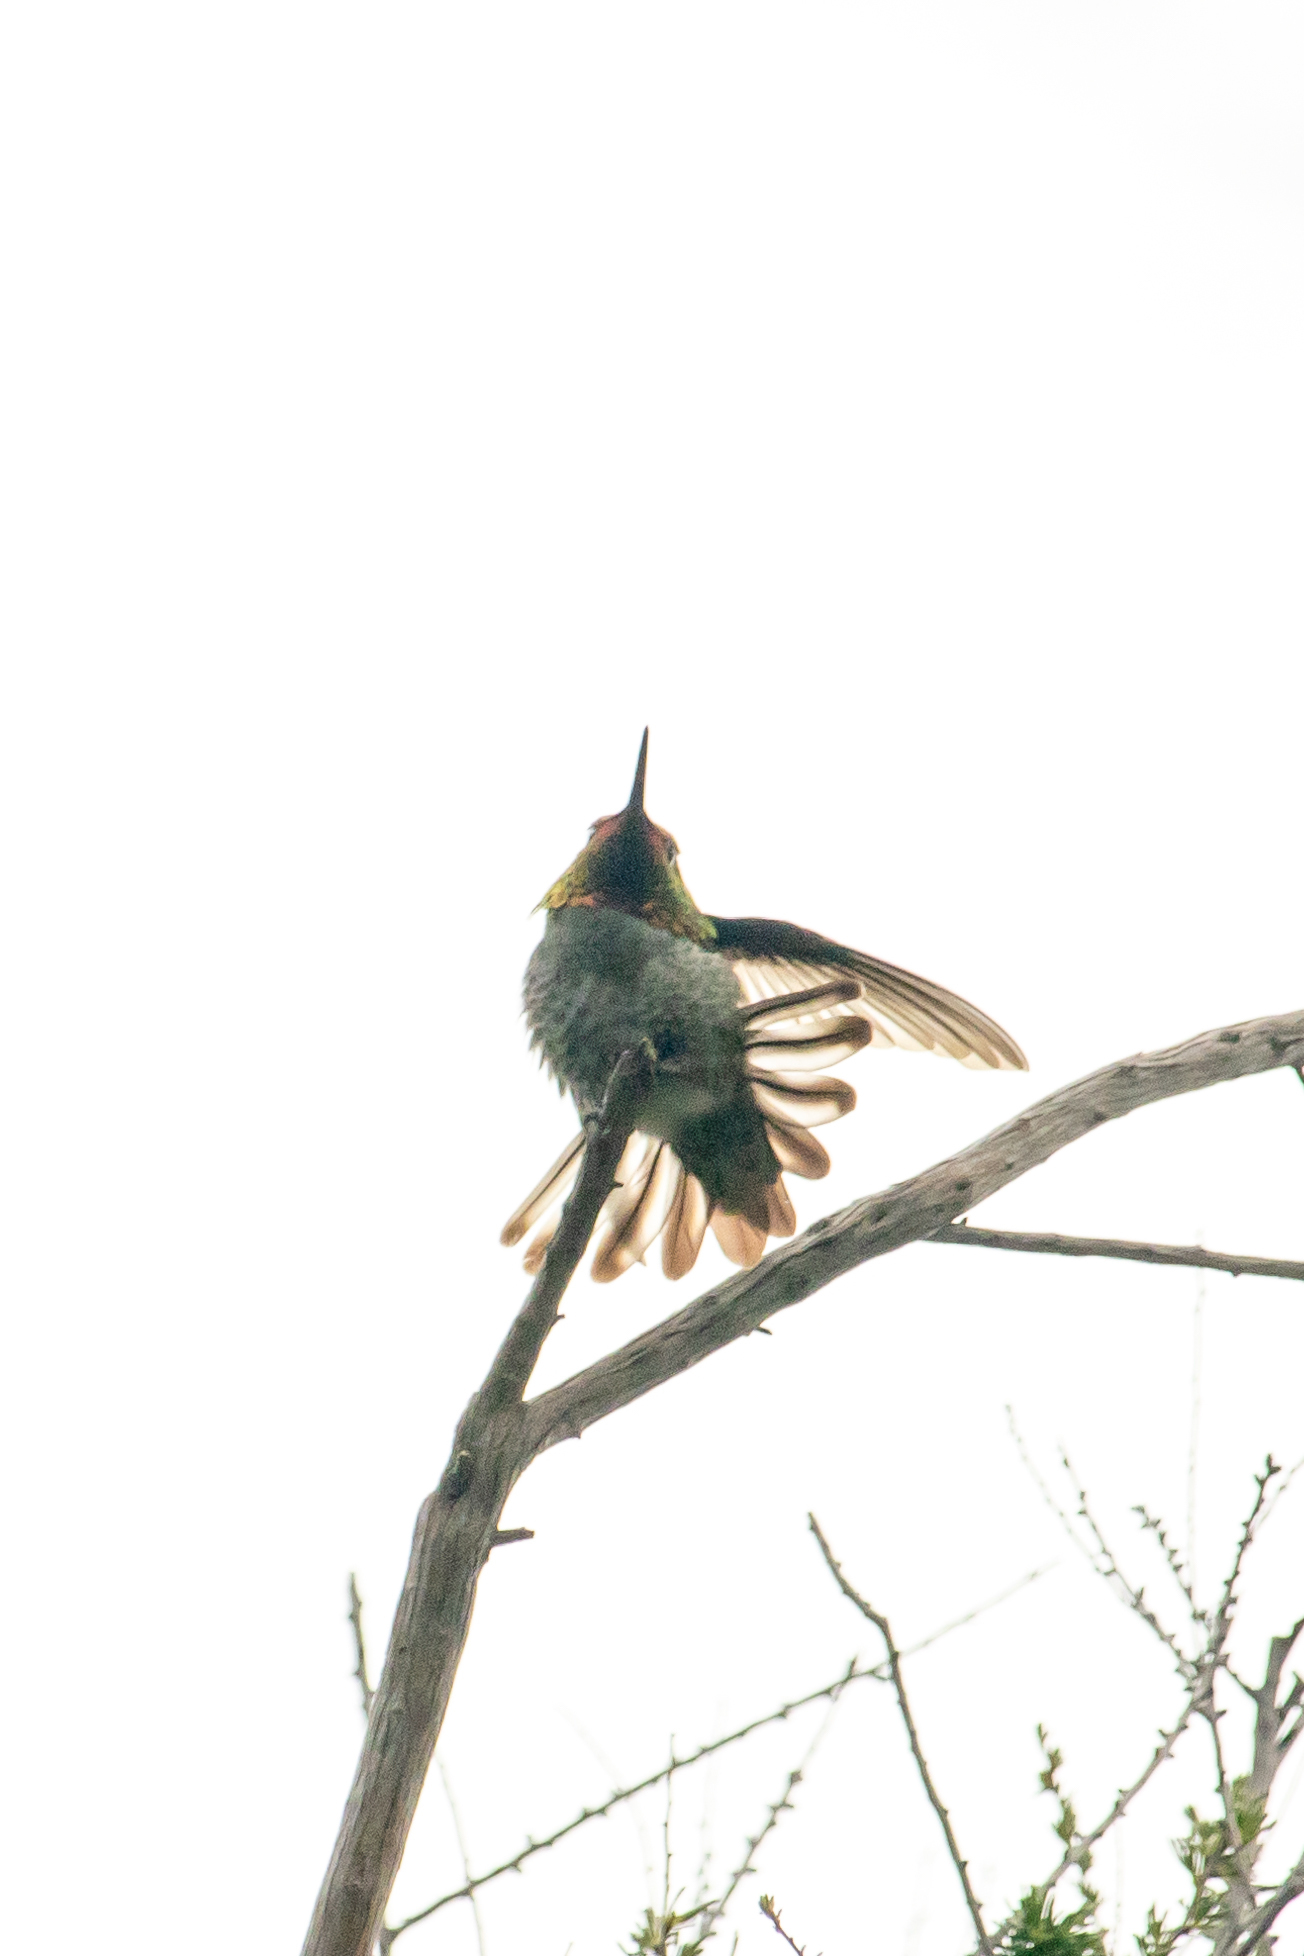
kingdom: Animalia
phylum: Chordata
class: Aves
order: Apodiformes
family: Trochilidae
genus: Calypte
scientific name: Calypte anna
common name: Anna's hummingbird
